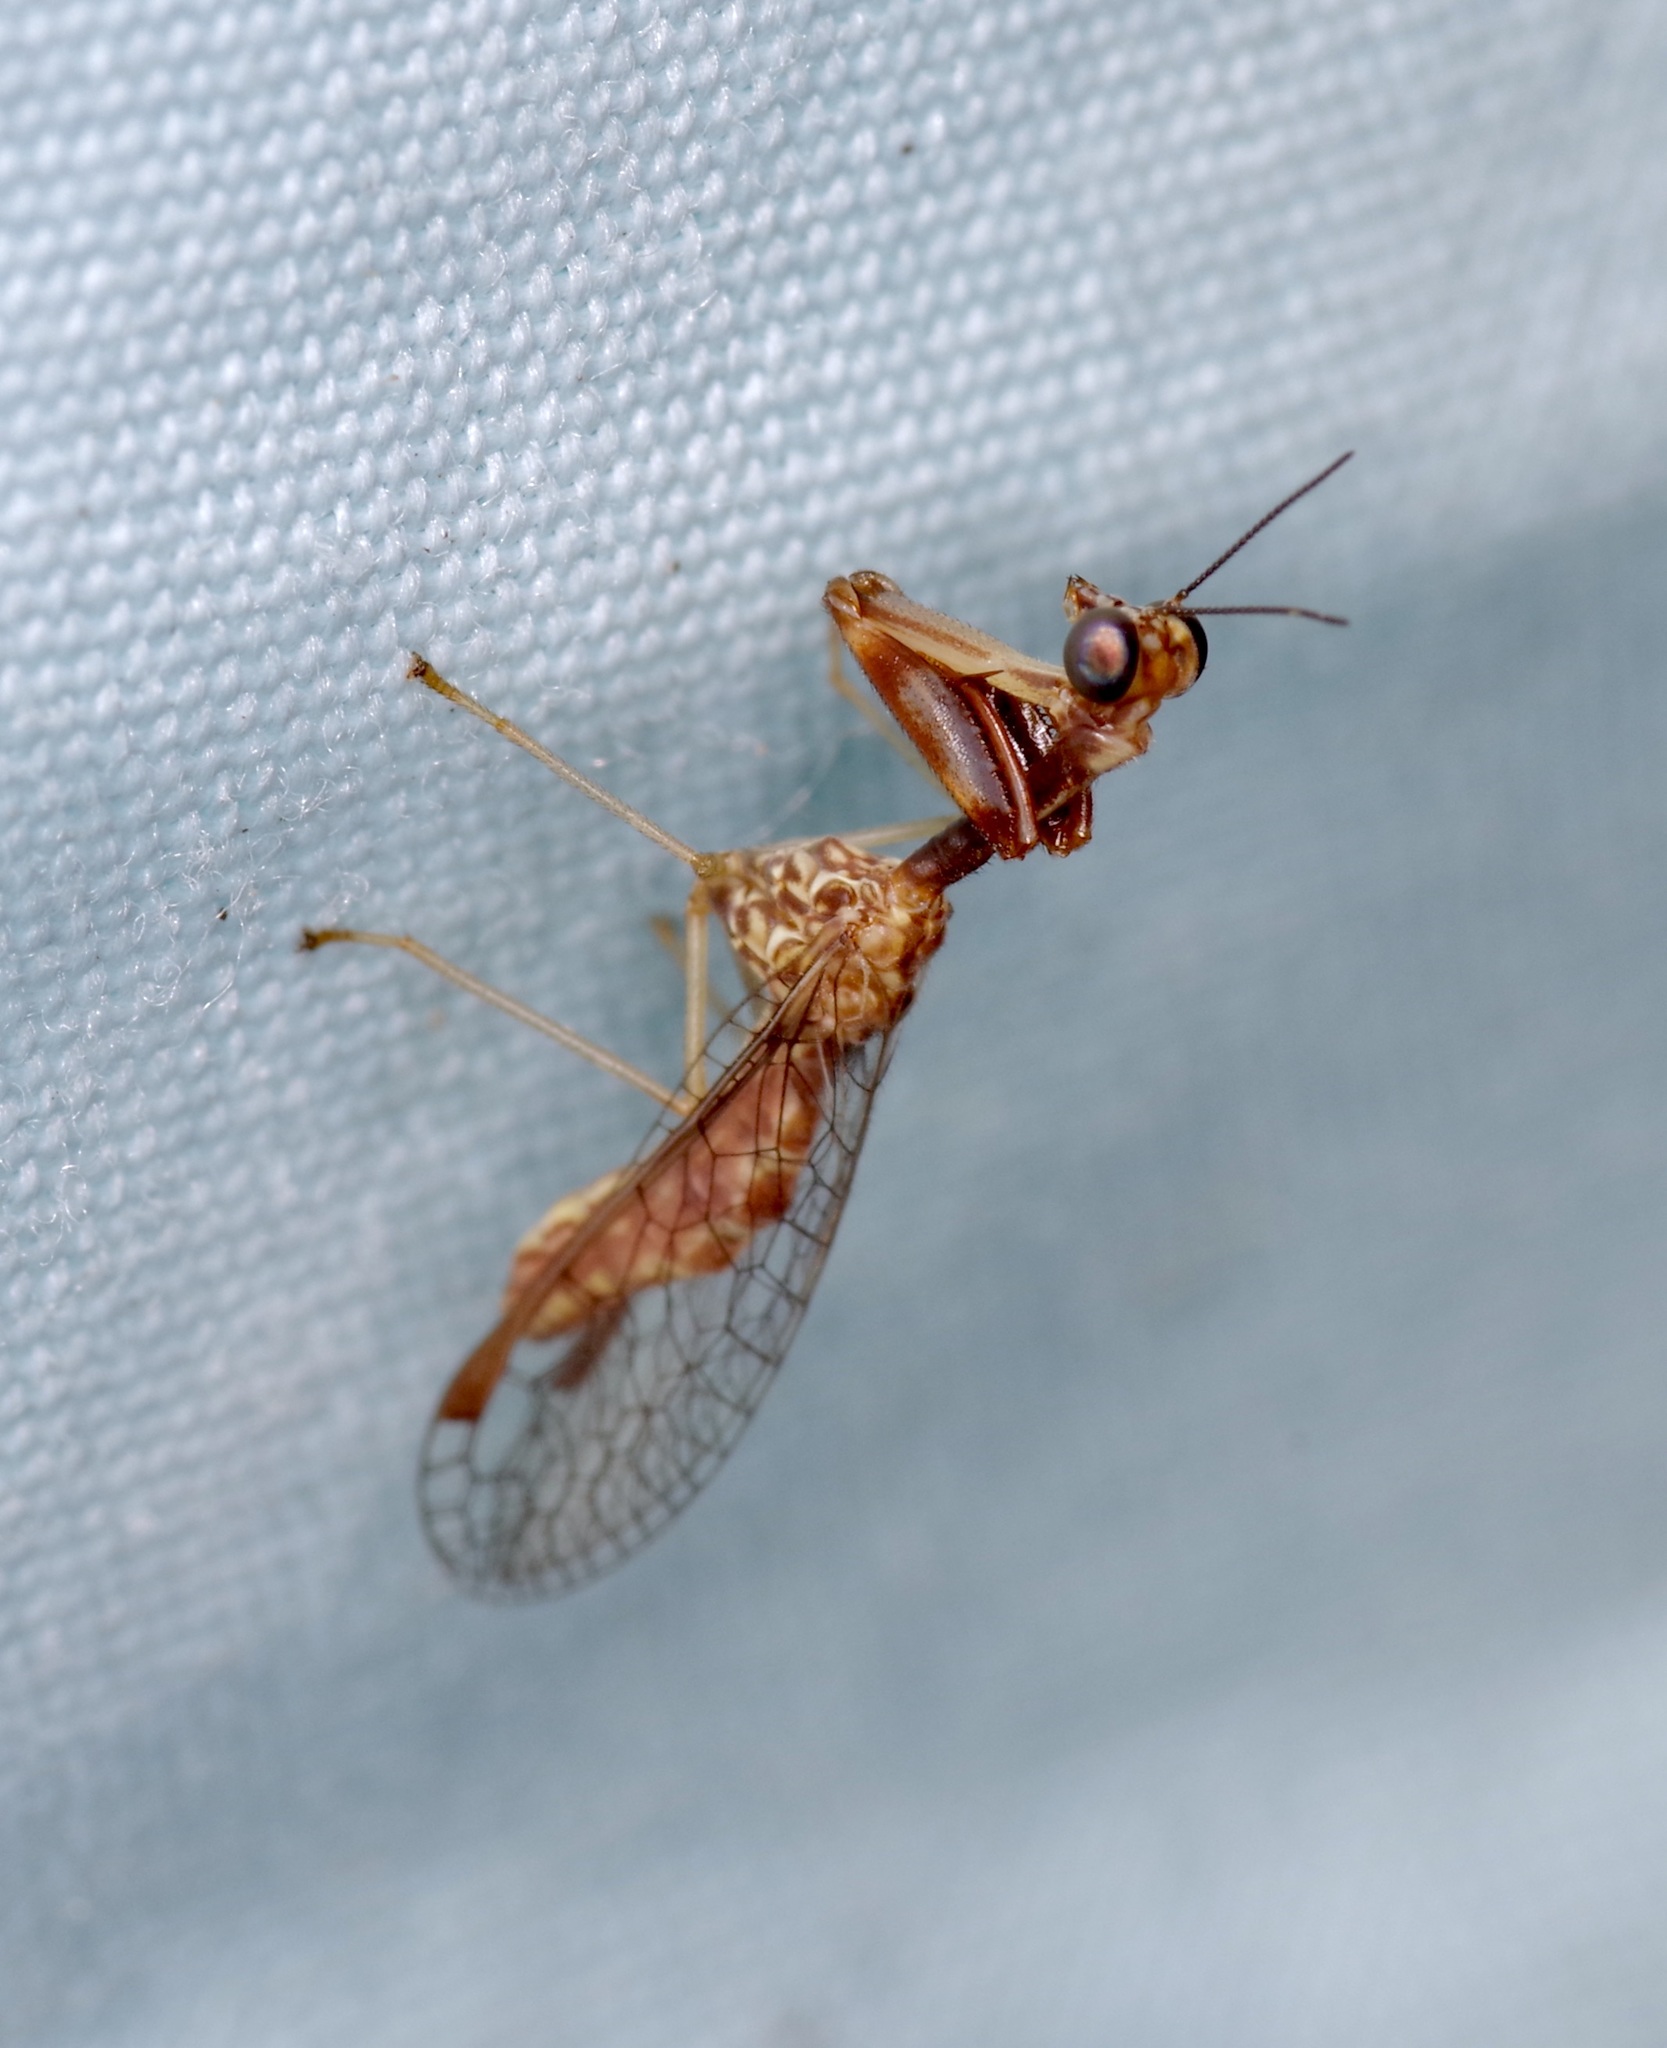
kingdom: Animalia
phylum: Arthropoda
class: Insecta
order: Neuroptera
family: Mantispidae
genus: Leptomantispa
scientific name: Leptomantispa pulchella
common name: Stevens's mantidfly
